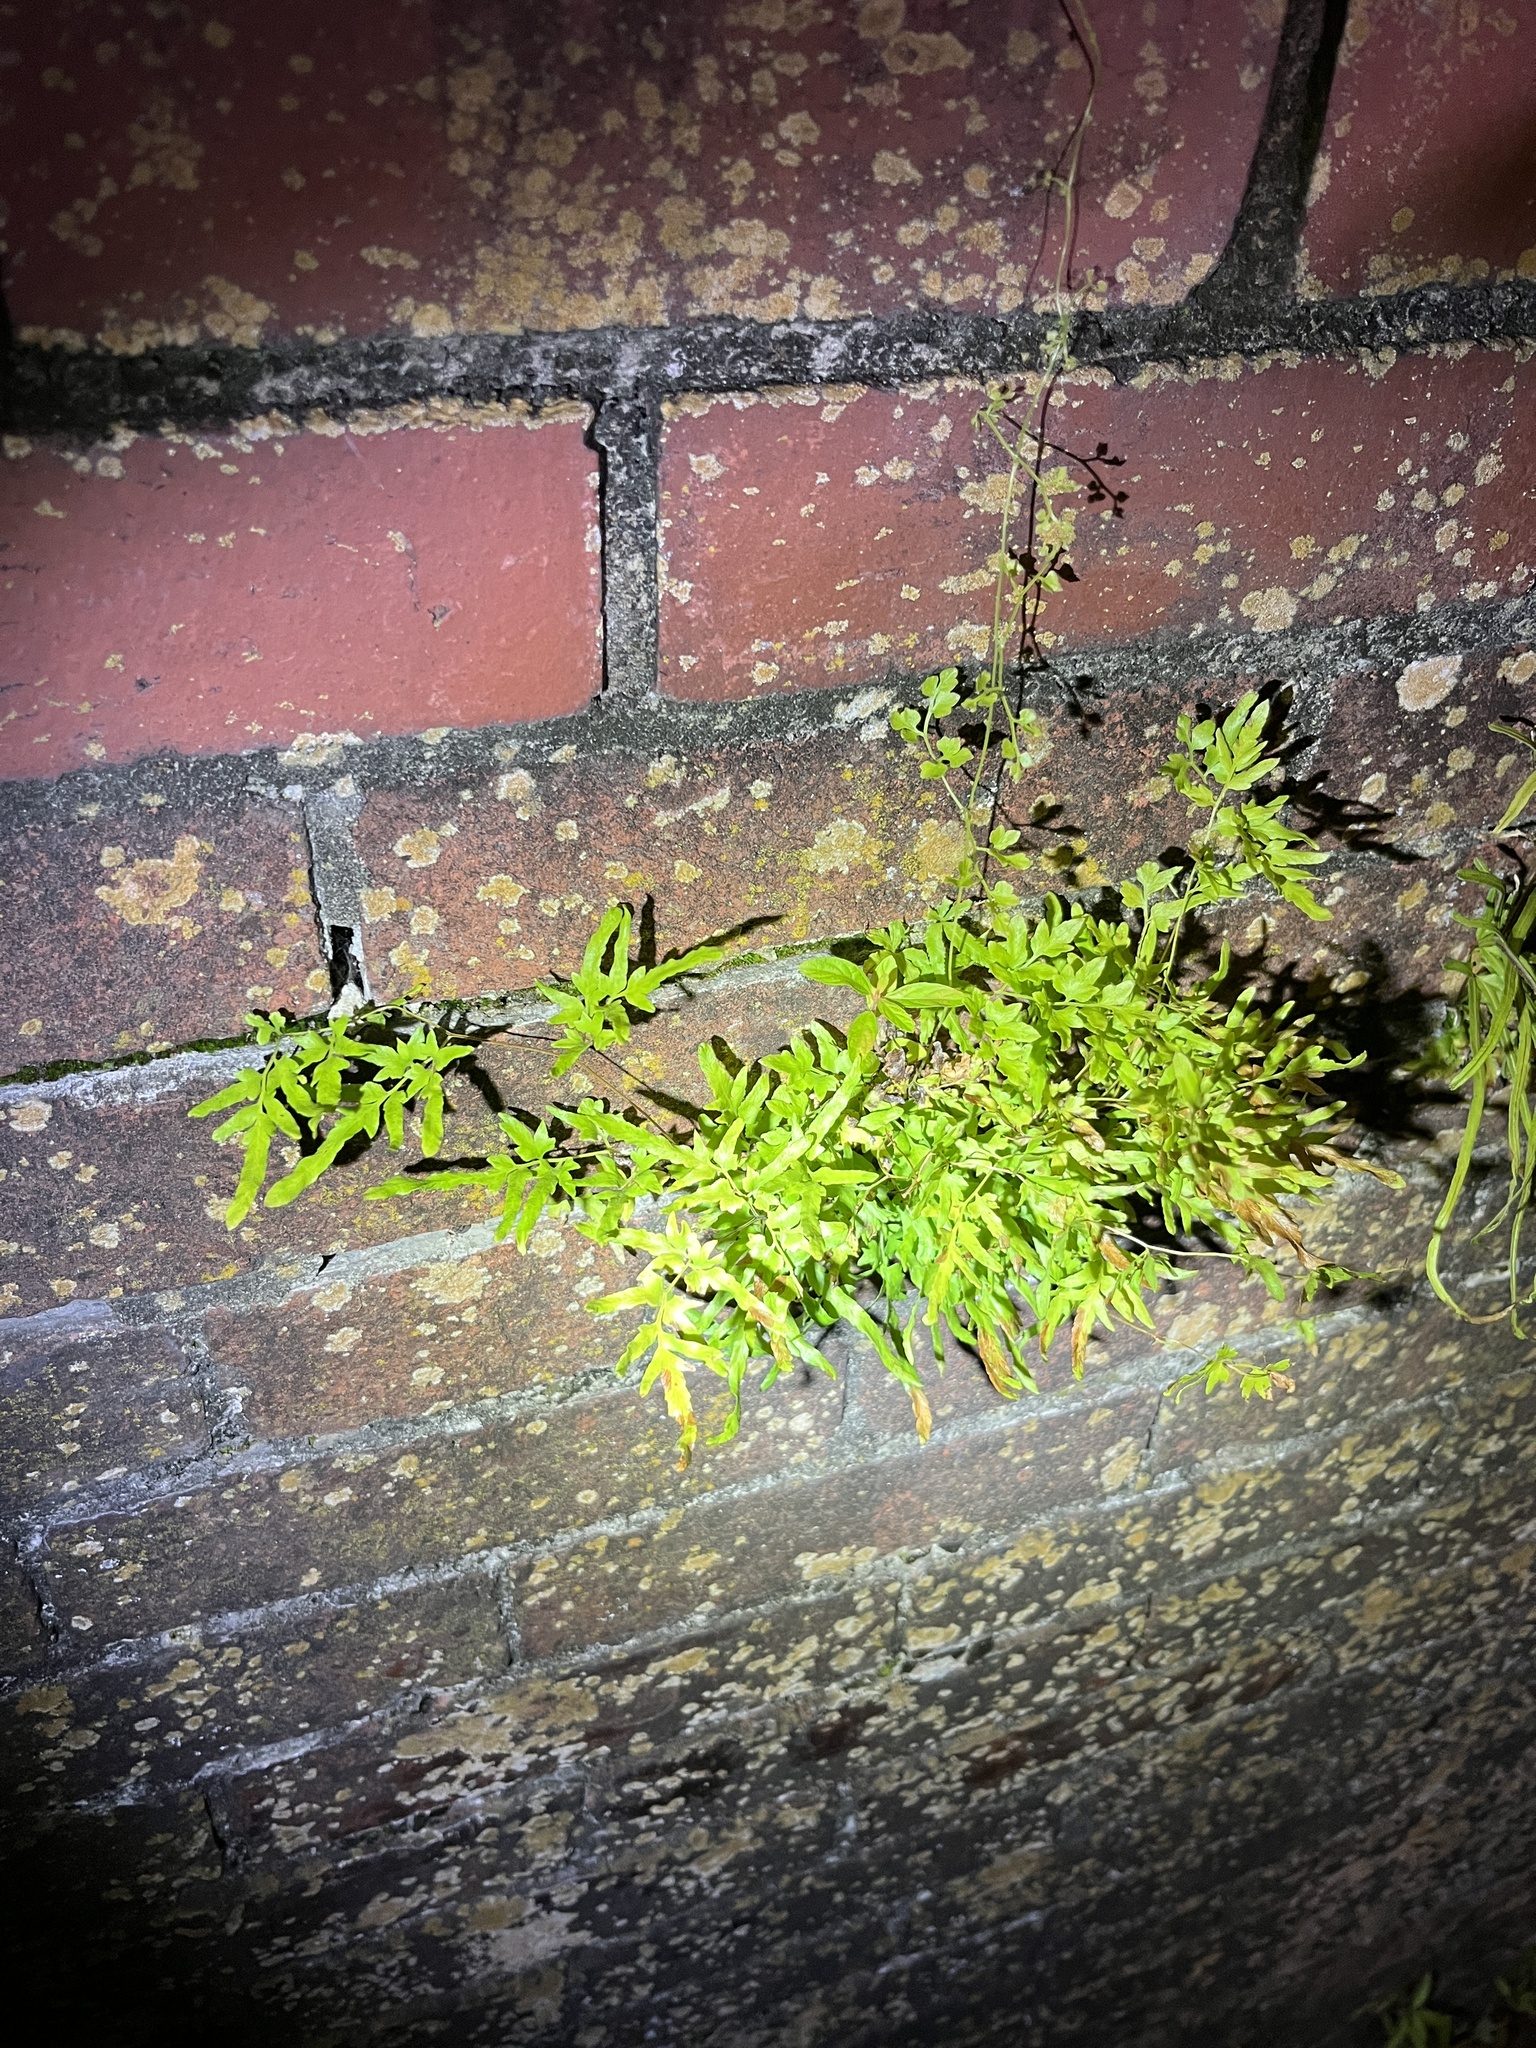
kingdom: Plantae
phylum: Tracheophyta
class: Polypodiopsida
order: Schizaeales
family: Lygodiaceae
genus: Lygodium
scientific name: Lygodium japonicum
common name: Japanese climbing fern
